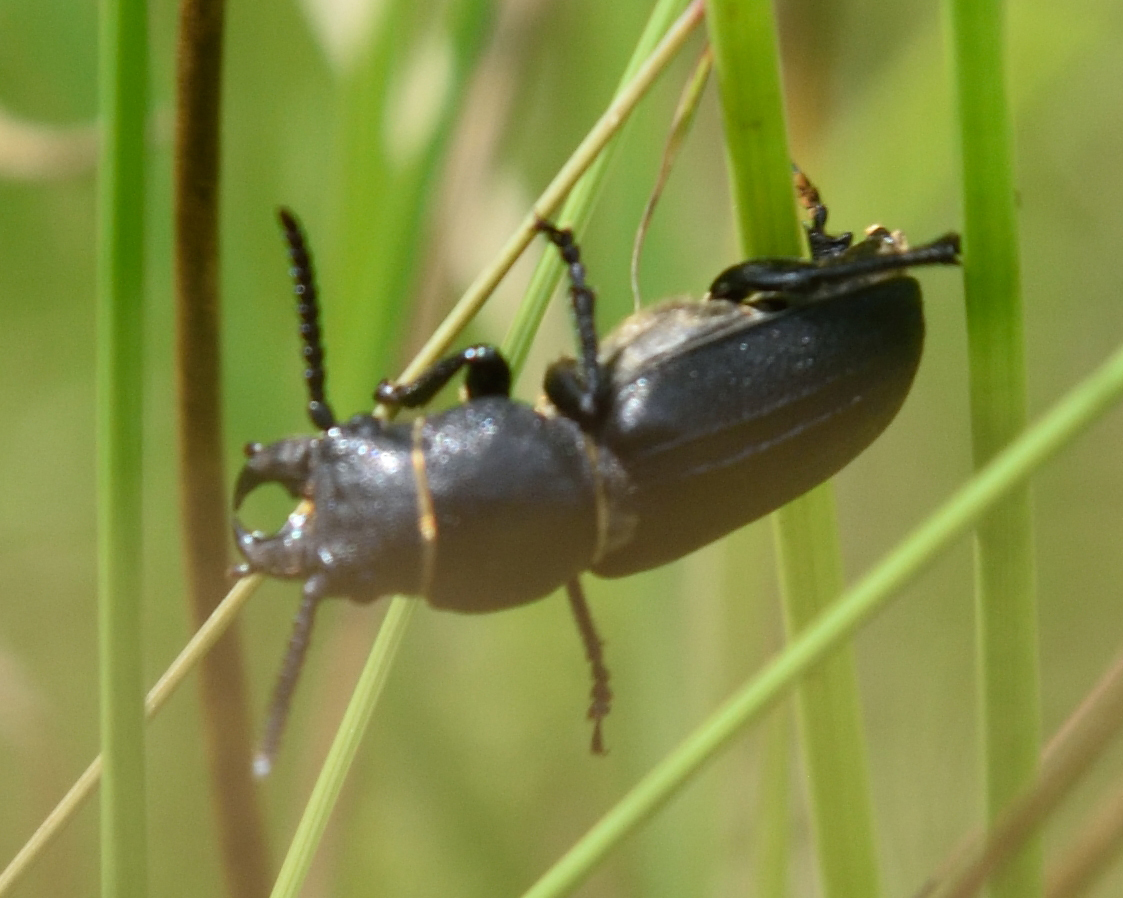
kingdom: Animalia
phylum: Arthropoda
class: Insecta
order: Coleoptera
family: Cerambycidae
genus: Spondylis
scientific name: Spondylis buprestoides
